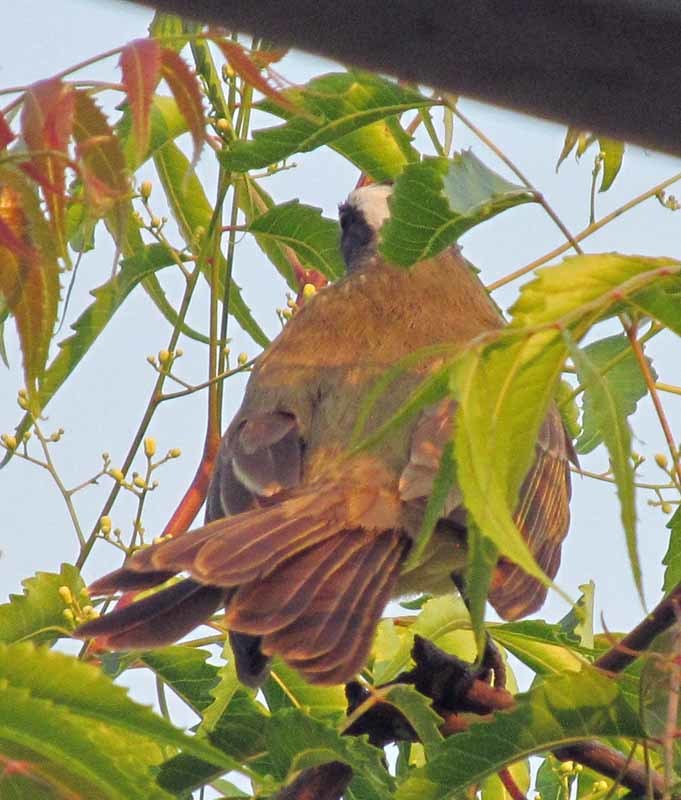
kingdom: Animalia
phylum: Chordata
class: Aves
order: Passeriformes
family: Tyrannidae
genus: Myiozetetes
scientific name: Myiozetetes similis
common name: Social flycatcher
